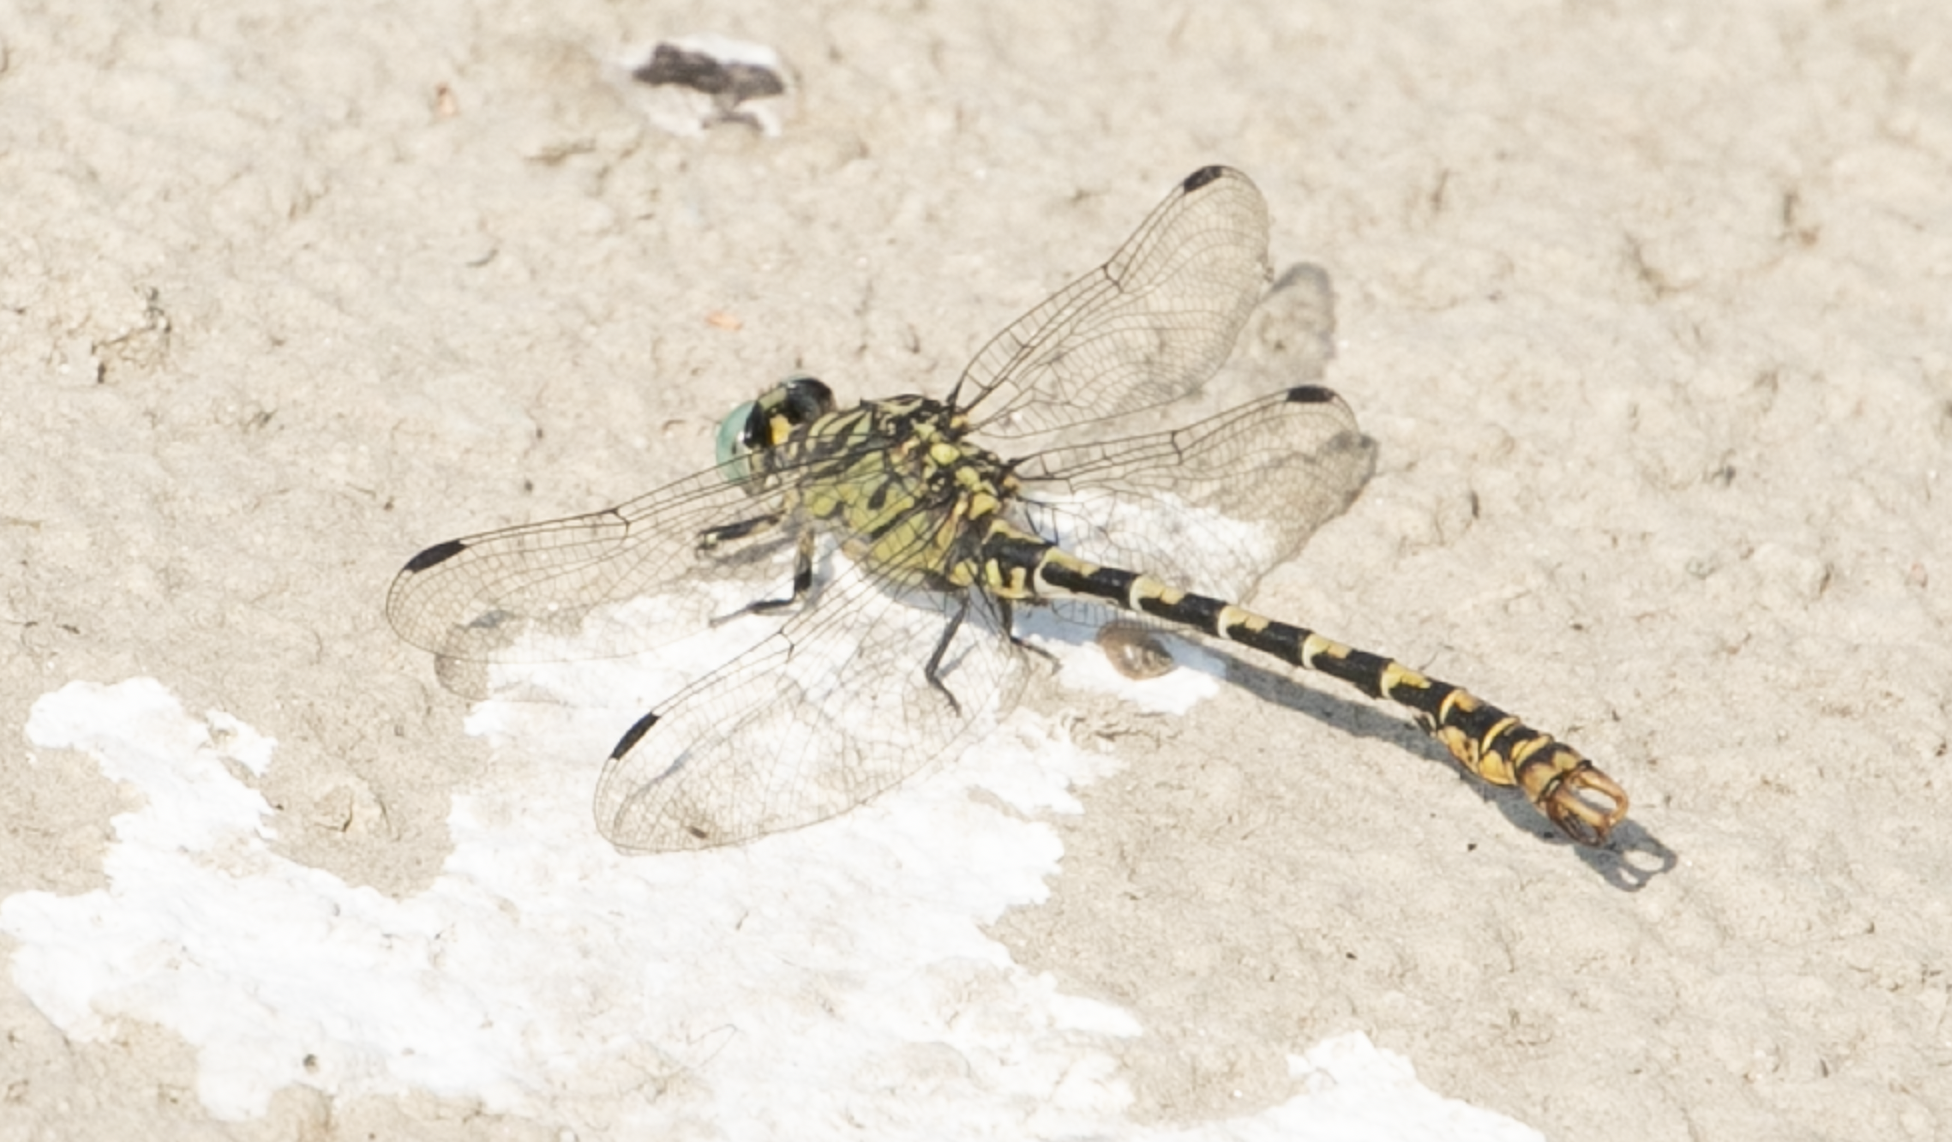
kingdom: Animalia
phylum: Arthropoda
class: Insecta
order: Odonata
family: Gomphidae
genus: Onychogomphus
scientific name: Onychogomphus forcipatus
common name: Small pincertail
